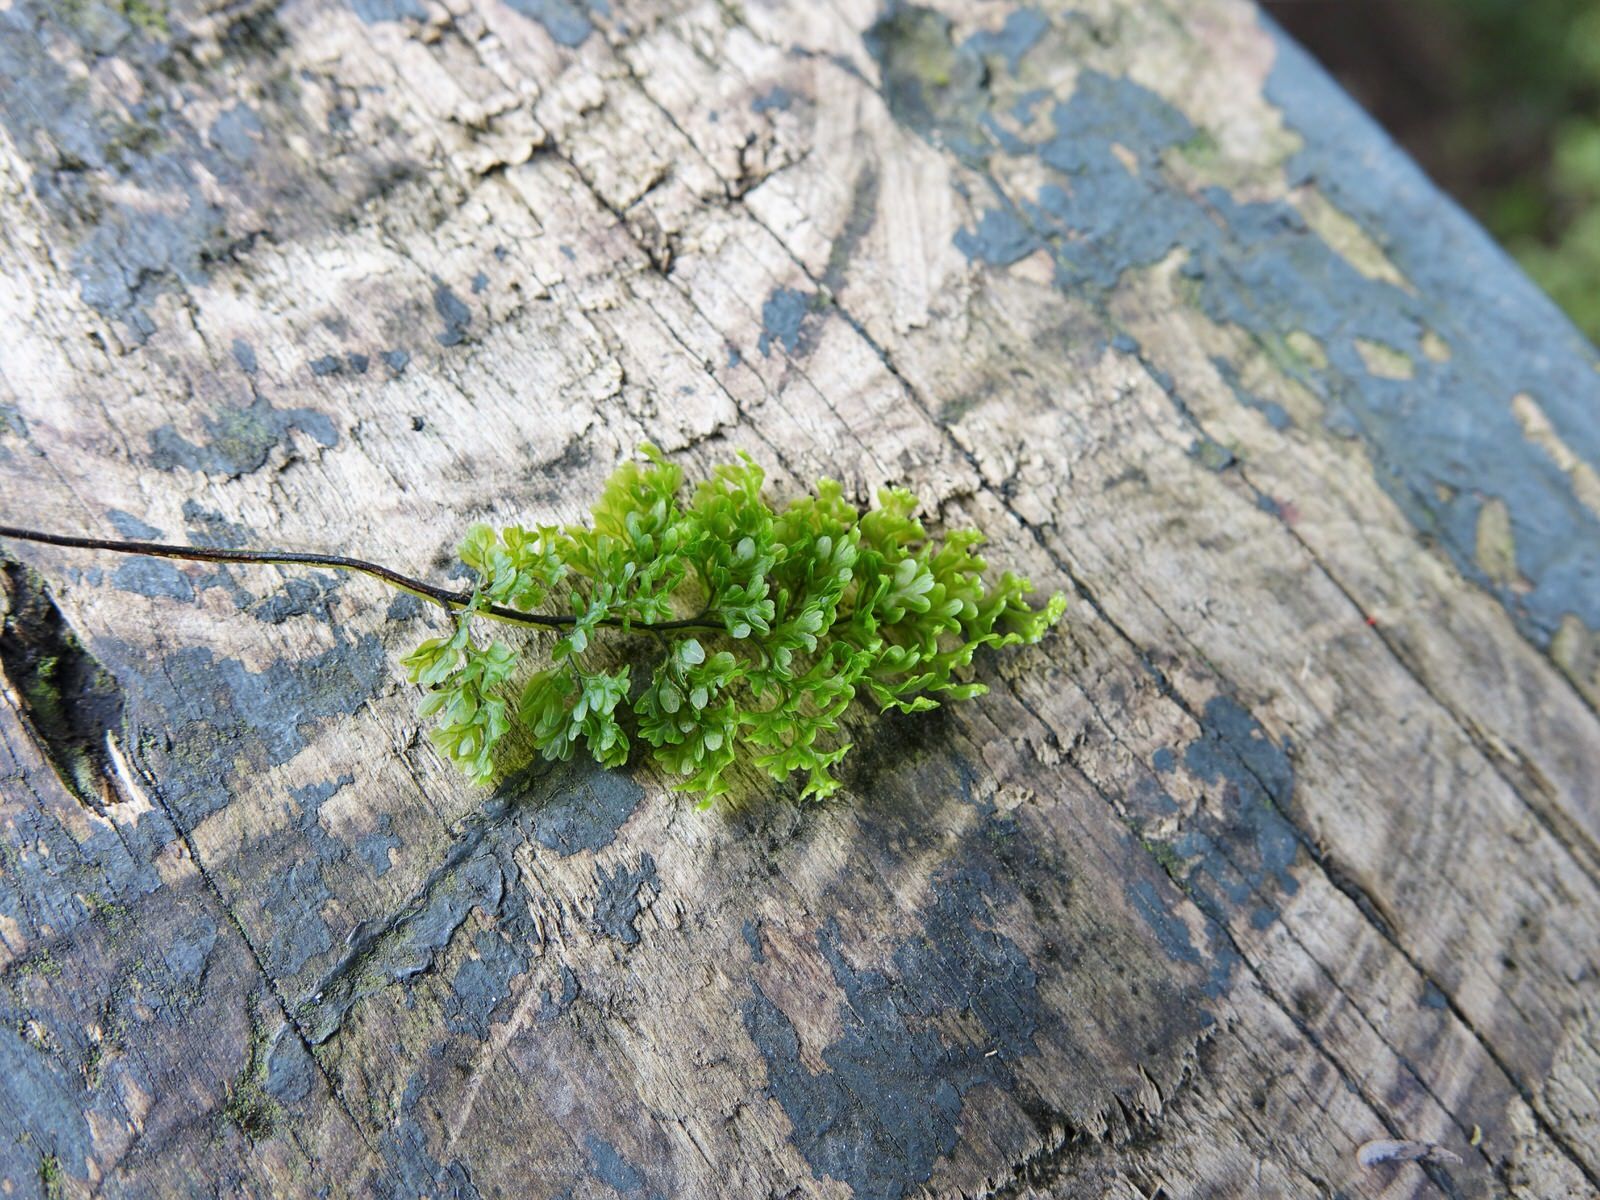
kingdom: Plantae
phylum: Tracheophyta
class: Polypodiopsida
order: Hymenophyllales
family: Hymenophyllaceae
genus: Hymenophyllum
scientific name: Hymenophyllum sanguinolentum
